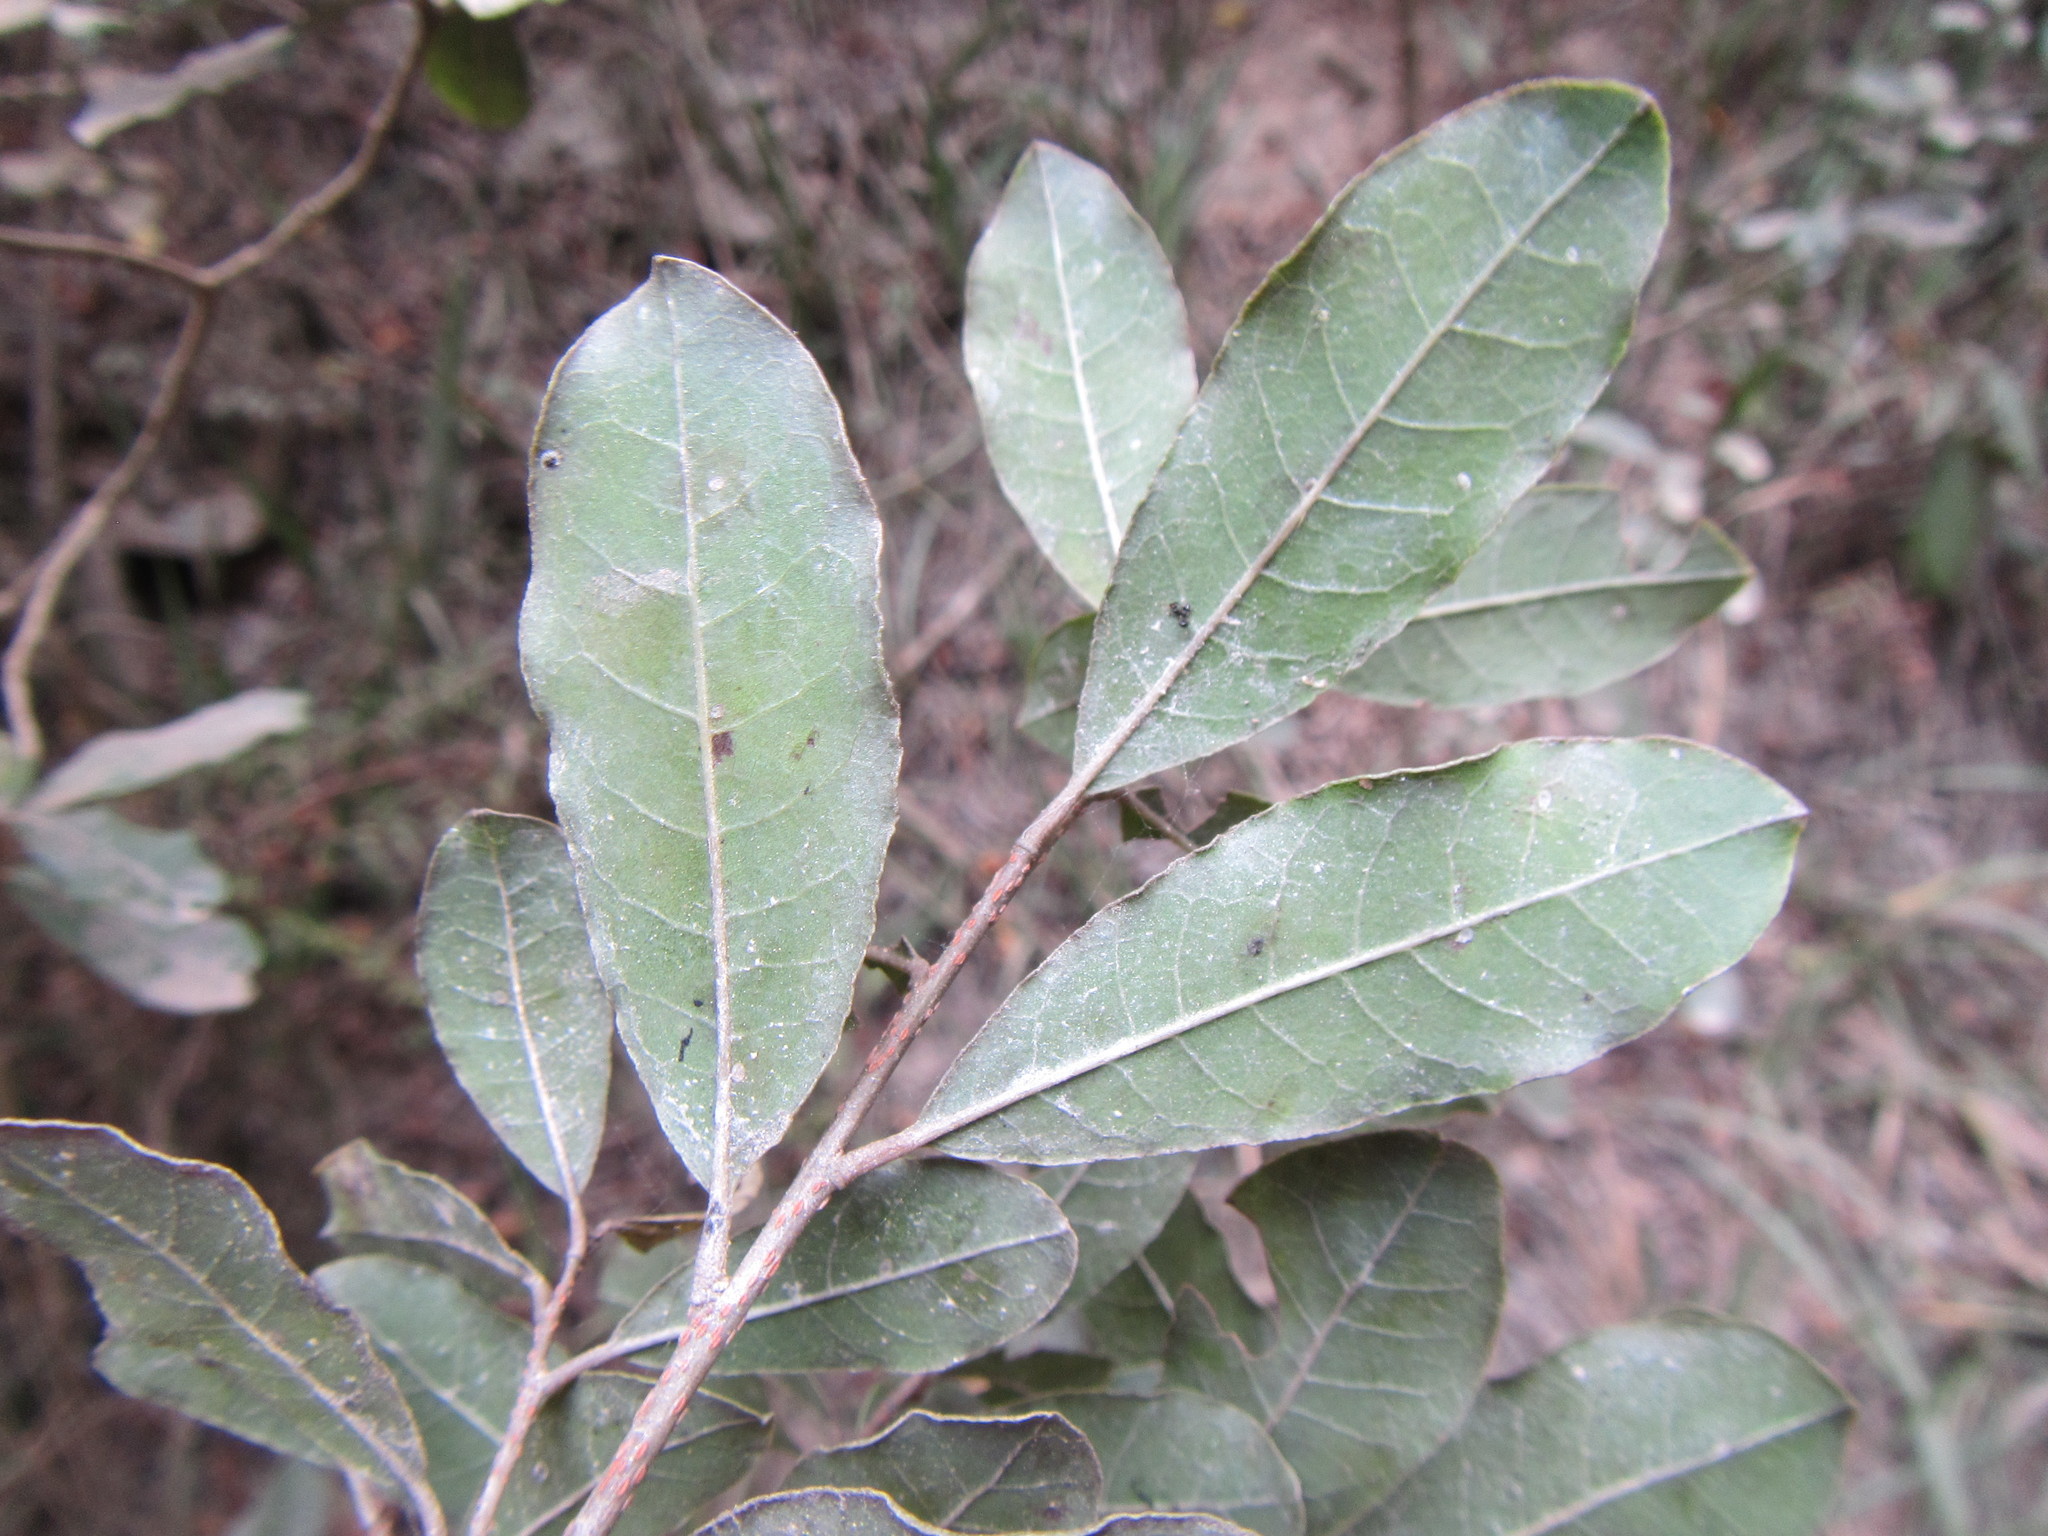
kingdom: Plantae
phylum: Tracheophyta
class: Magnoliopsida
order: Malpighiales
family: Phyllanthaceae
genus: Lachnostylis
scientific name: Lachnostylis hirta
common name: Coalwood
